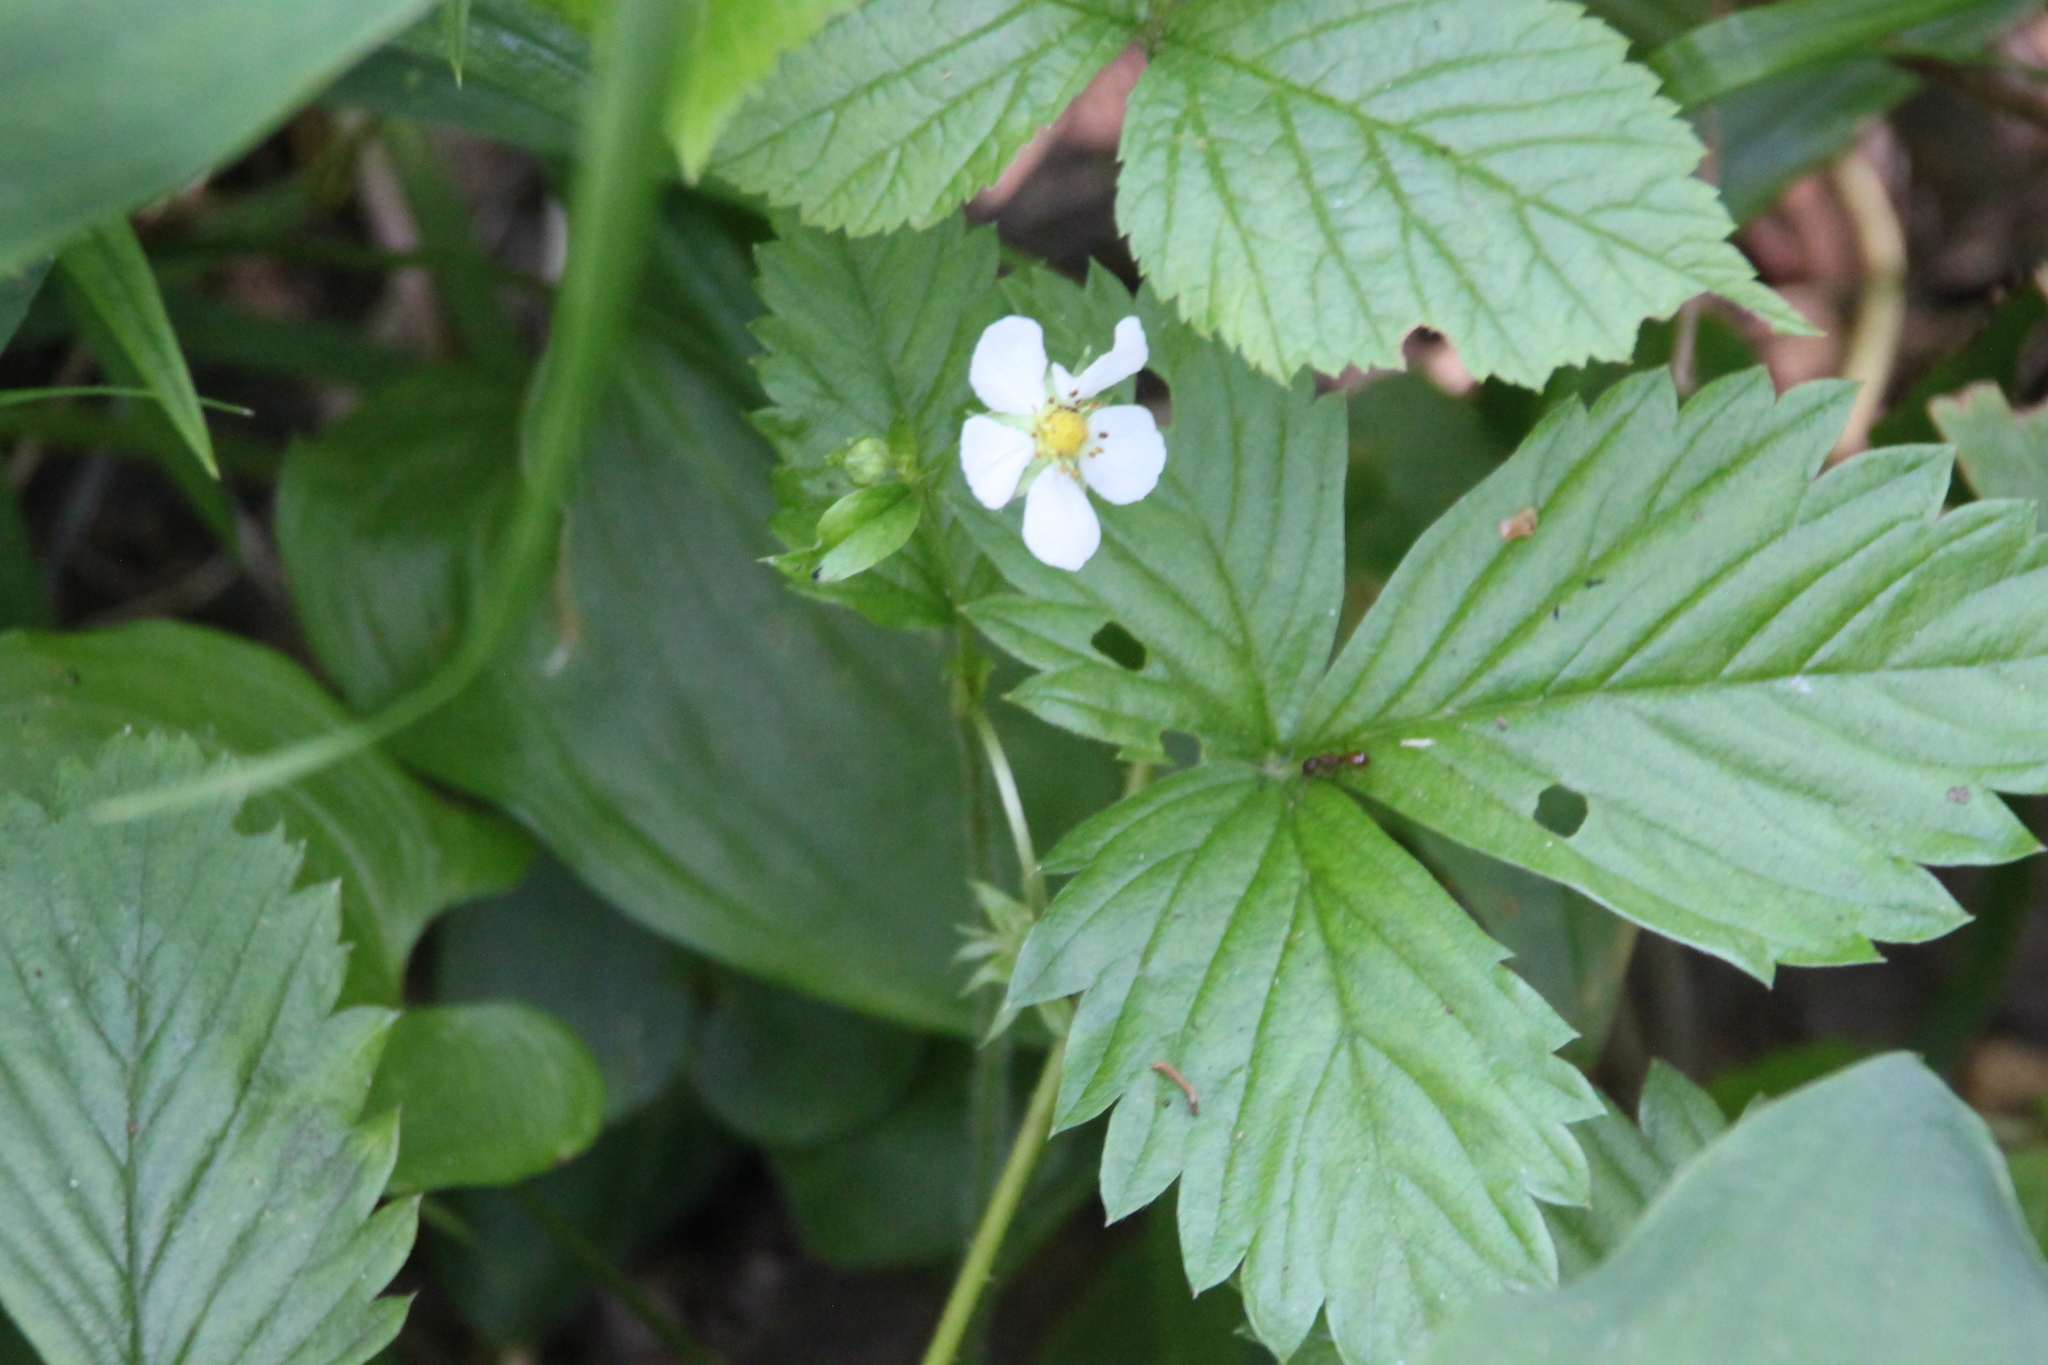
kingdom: Plantae
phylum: Tracheophyta
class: Magnoliopsida
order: Rosales
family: Rosaceae
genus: Fragaria
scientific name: Fragaria vesca
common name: Wild strawberry
